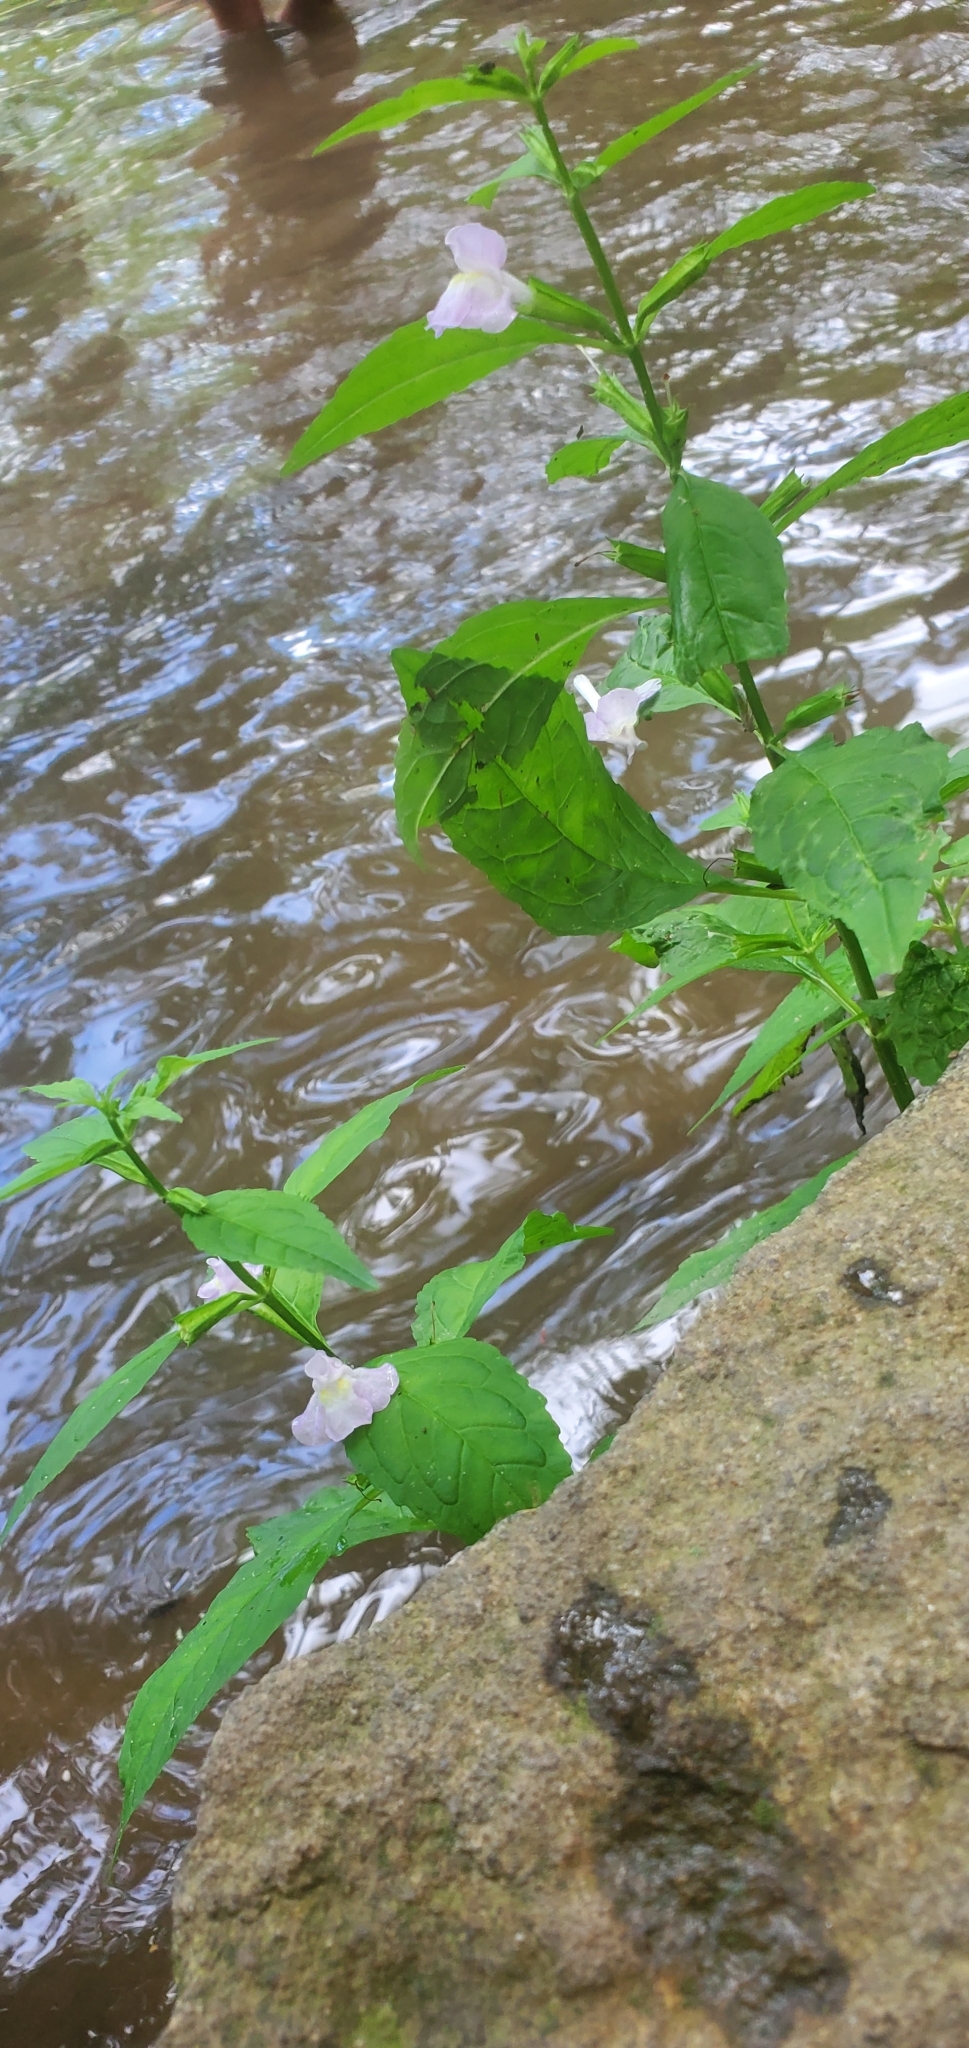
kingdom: Plantae
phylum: Tracheophyta
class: Magnoliopsida
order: Lamiales
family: Phrymaceae
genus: Mimulus
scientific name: Mimulus alatus
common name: Sharp-wing monkey-flower
